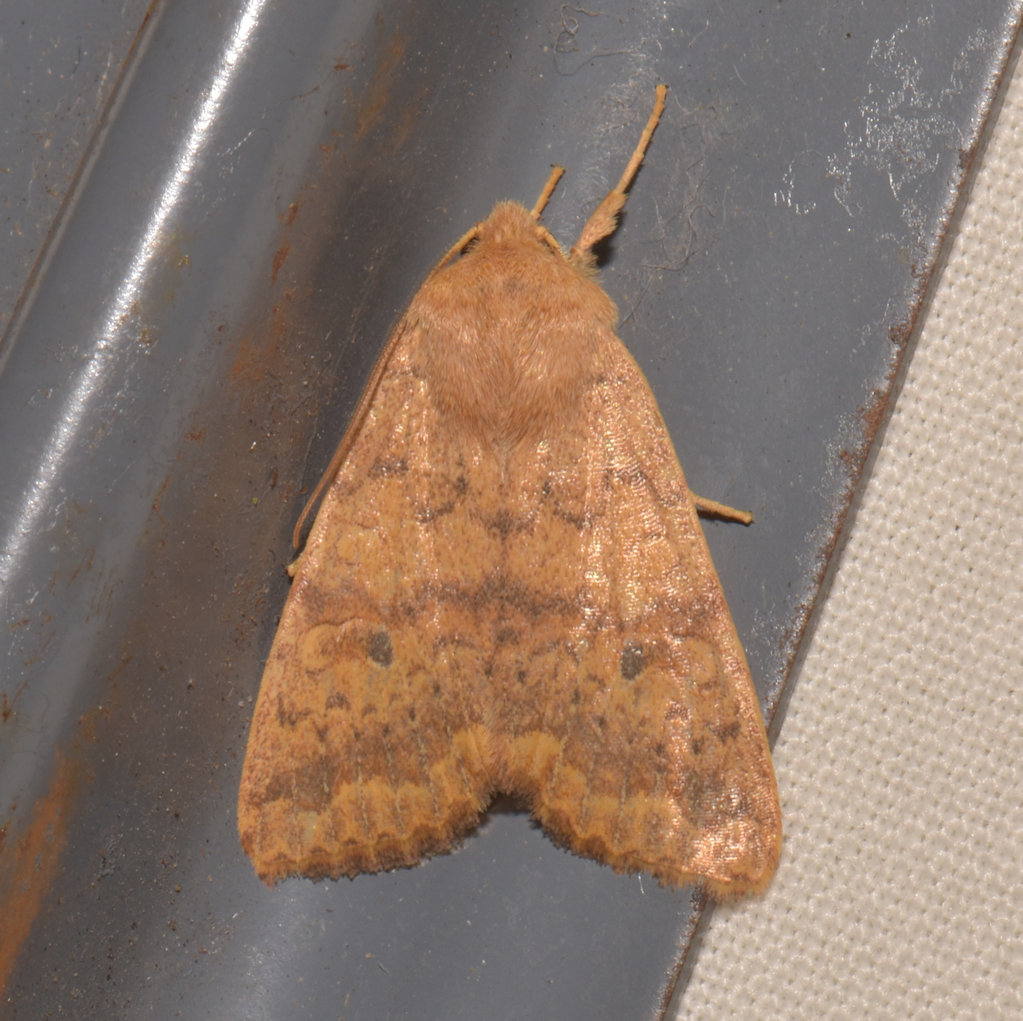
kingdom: Animalia
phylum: Arthropoda
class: Insecta
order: Lepidoptera
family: Noctuidae
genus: Agrochola
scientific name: Agrochola bicolorago
